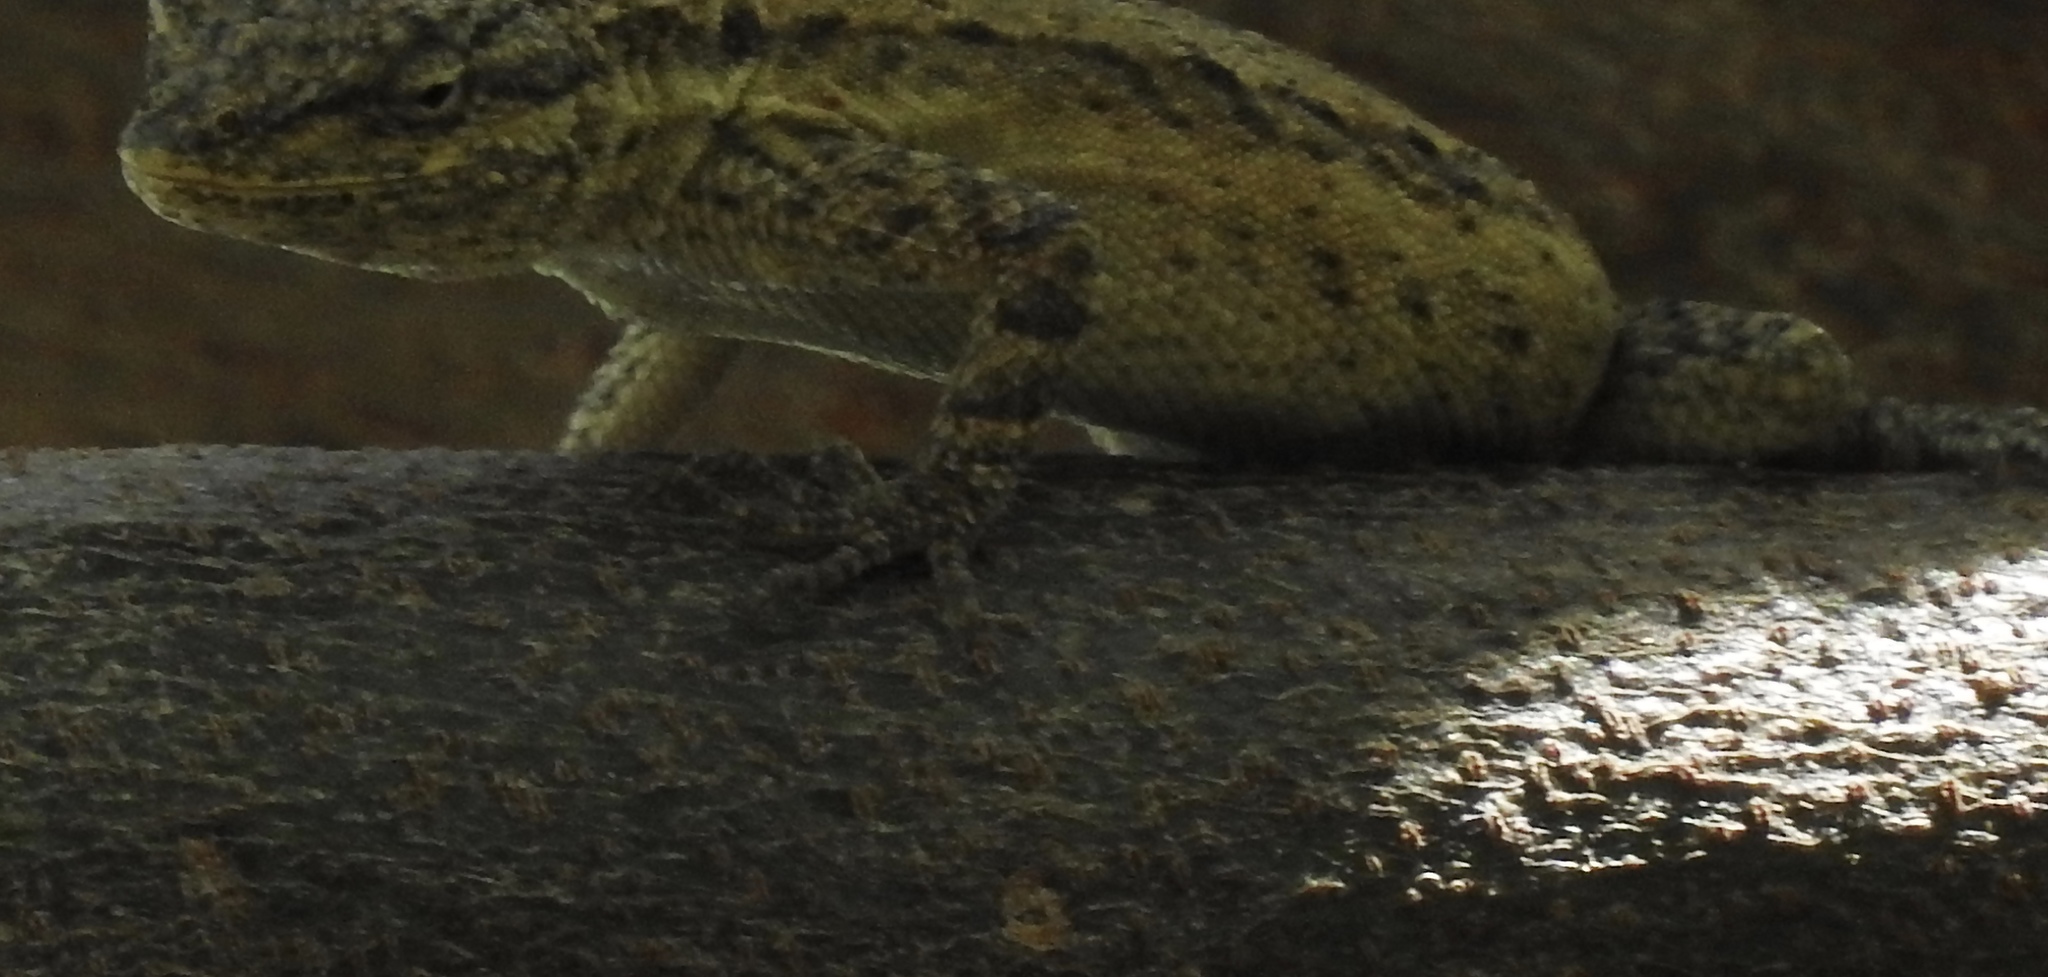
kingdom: Animalia
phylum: Chordata
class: Squamata
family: Phrynosomatidae
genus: Urosaurus
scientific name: Urosaurus graciosus
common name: Long-tailed brush lizard
